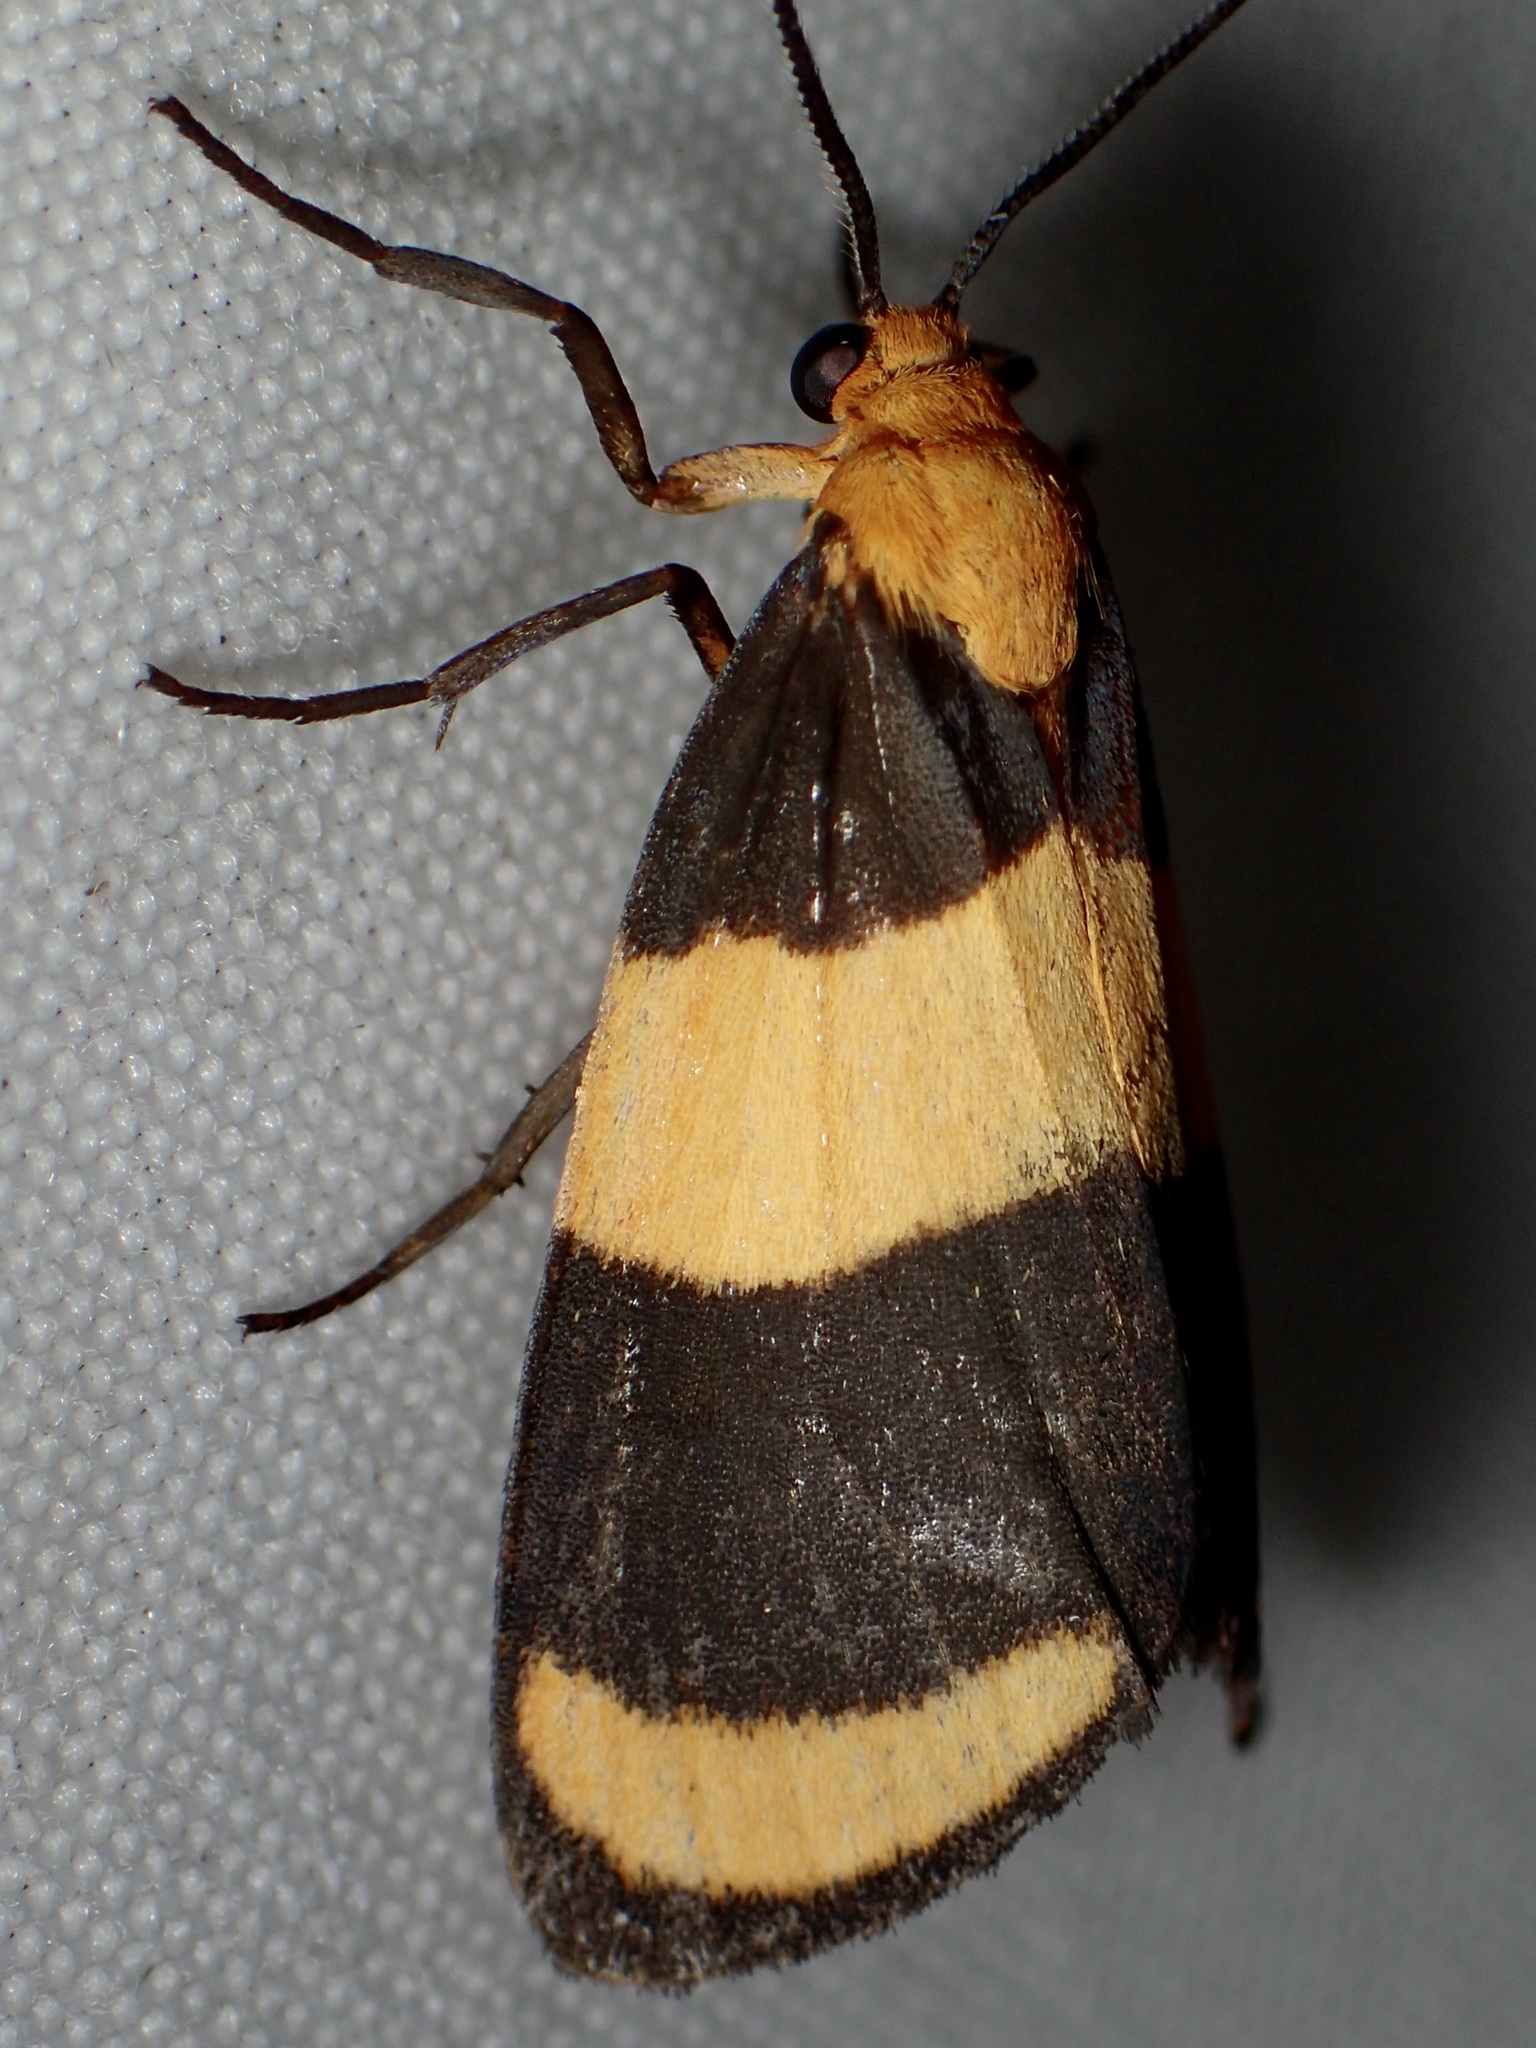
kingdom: Animalia
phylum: Arthropoda
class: Insecta
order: Lepidoptera
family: Erebidae
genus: Eudesmia
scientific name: Eudesmia arida
